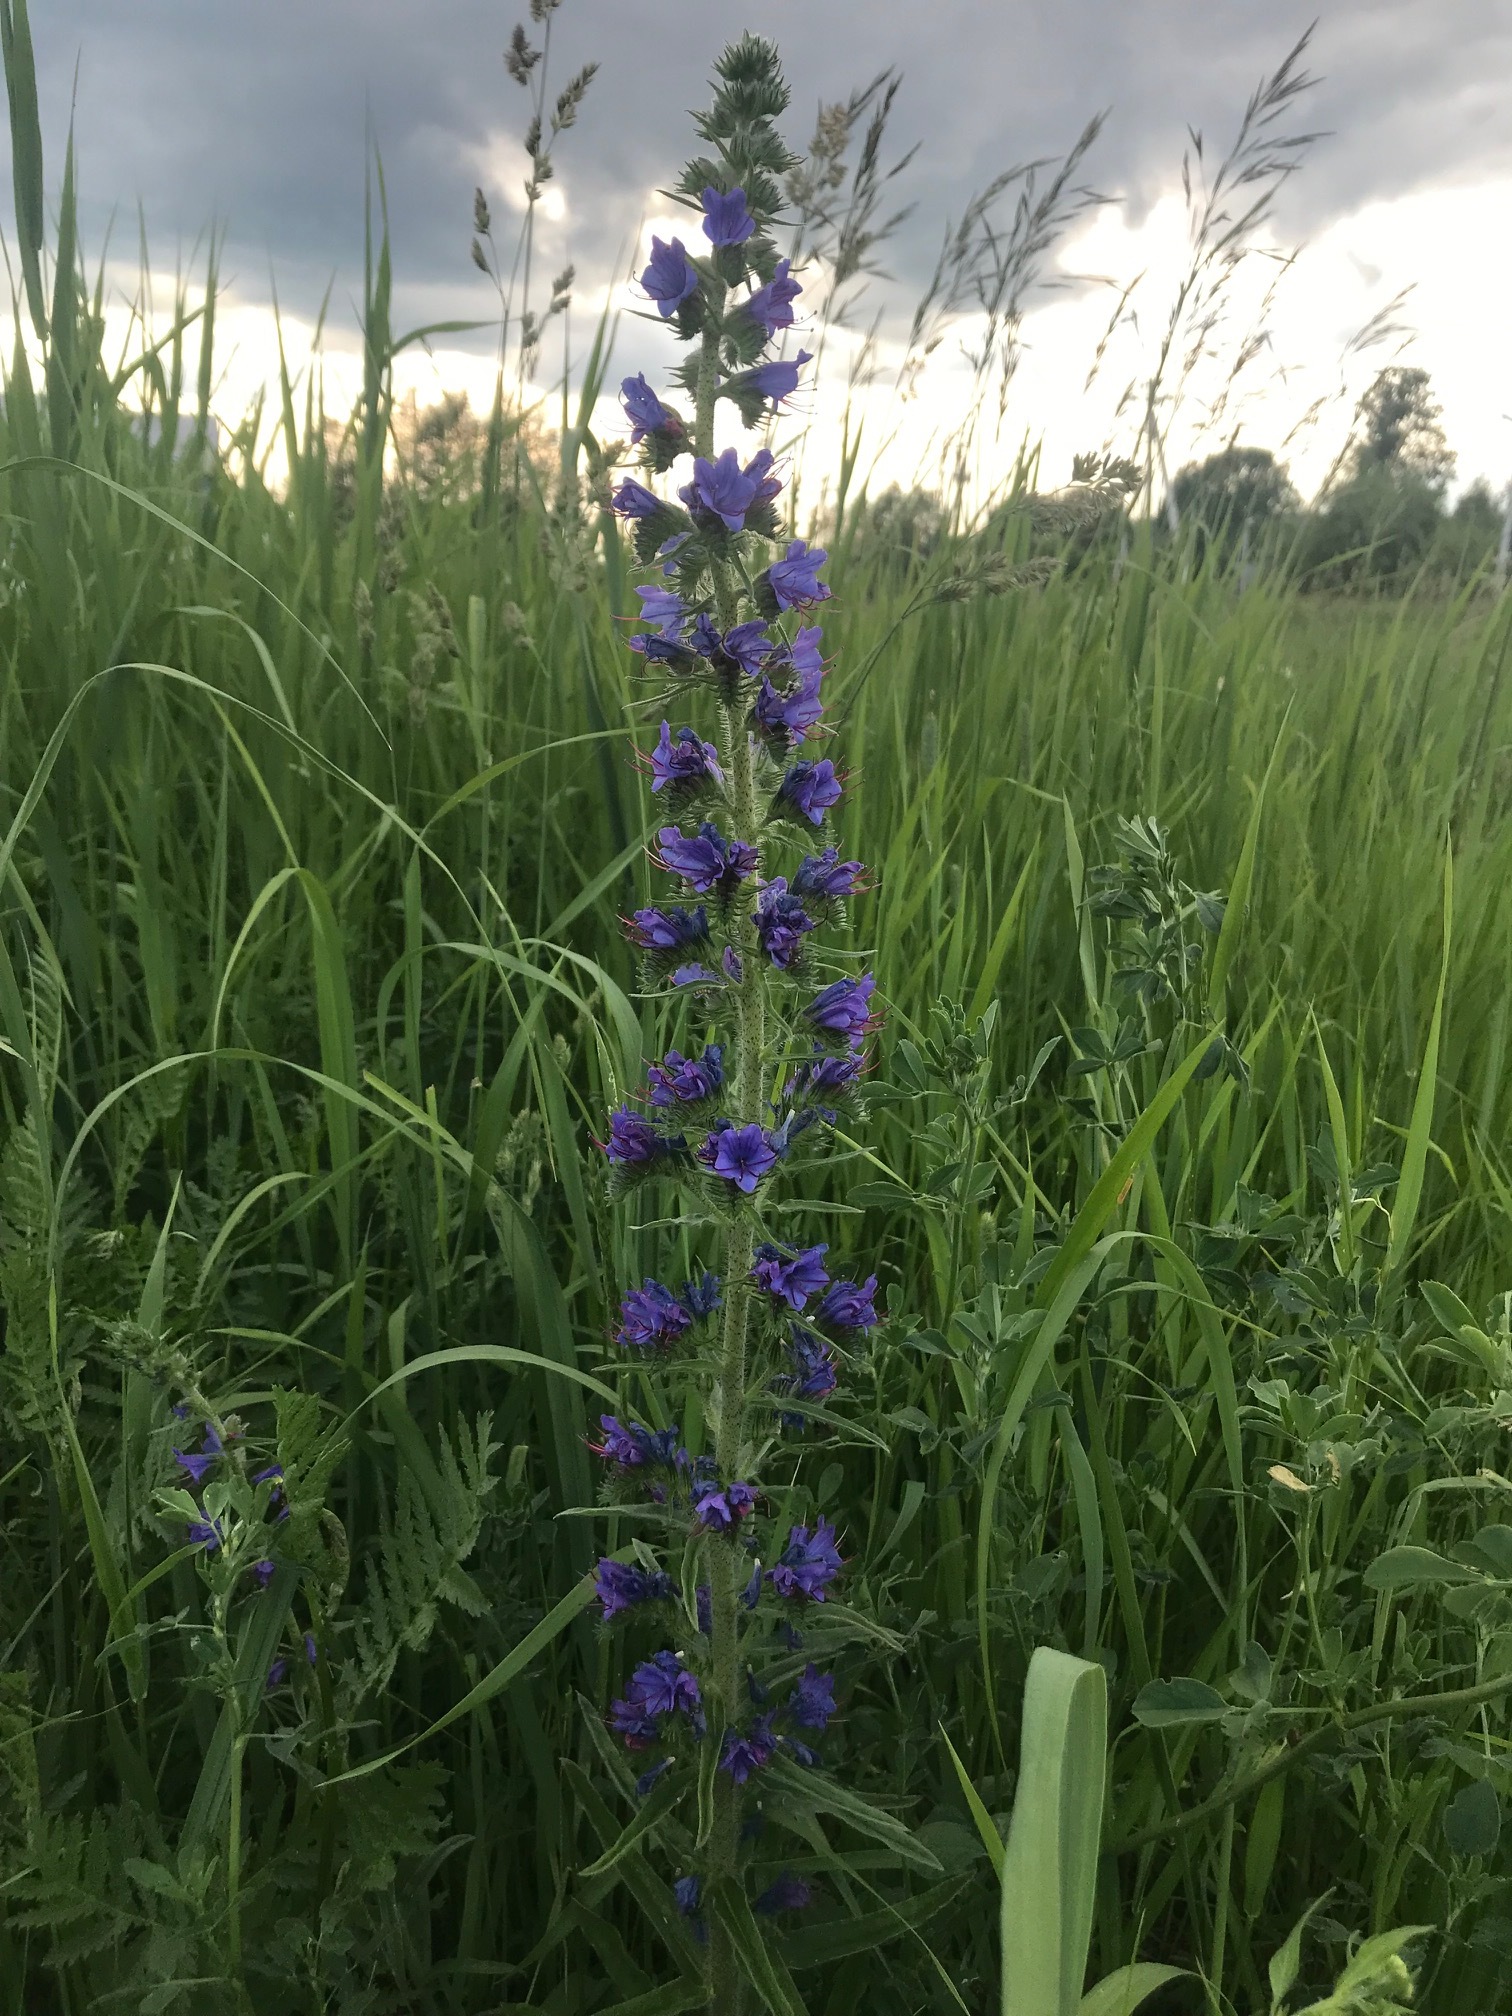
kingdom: Plantae
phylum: Tracheophyta
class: Magnoliopsida
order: Boraginales
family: Boraginaceae
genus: Echium
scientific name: Echium vulgare
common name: Common viper's bugloss
